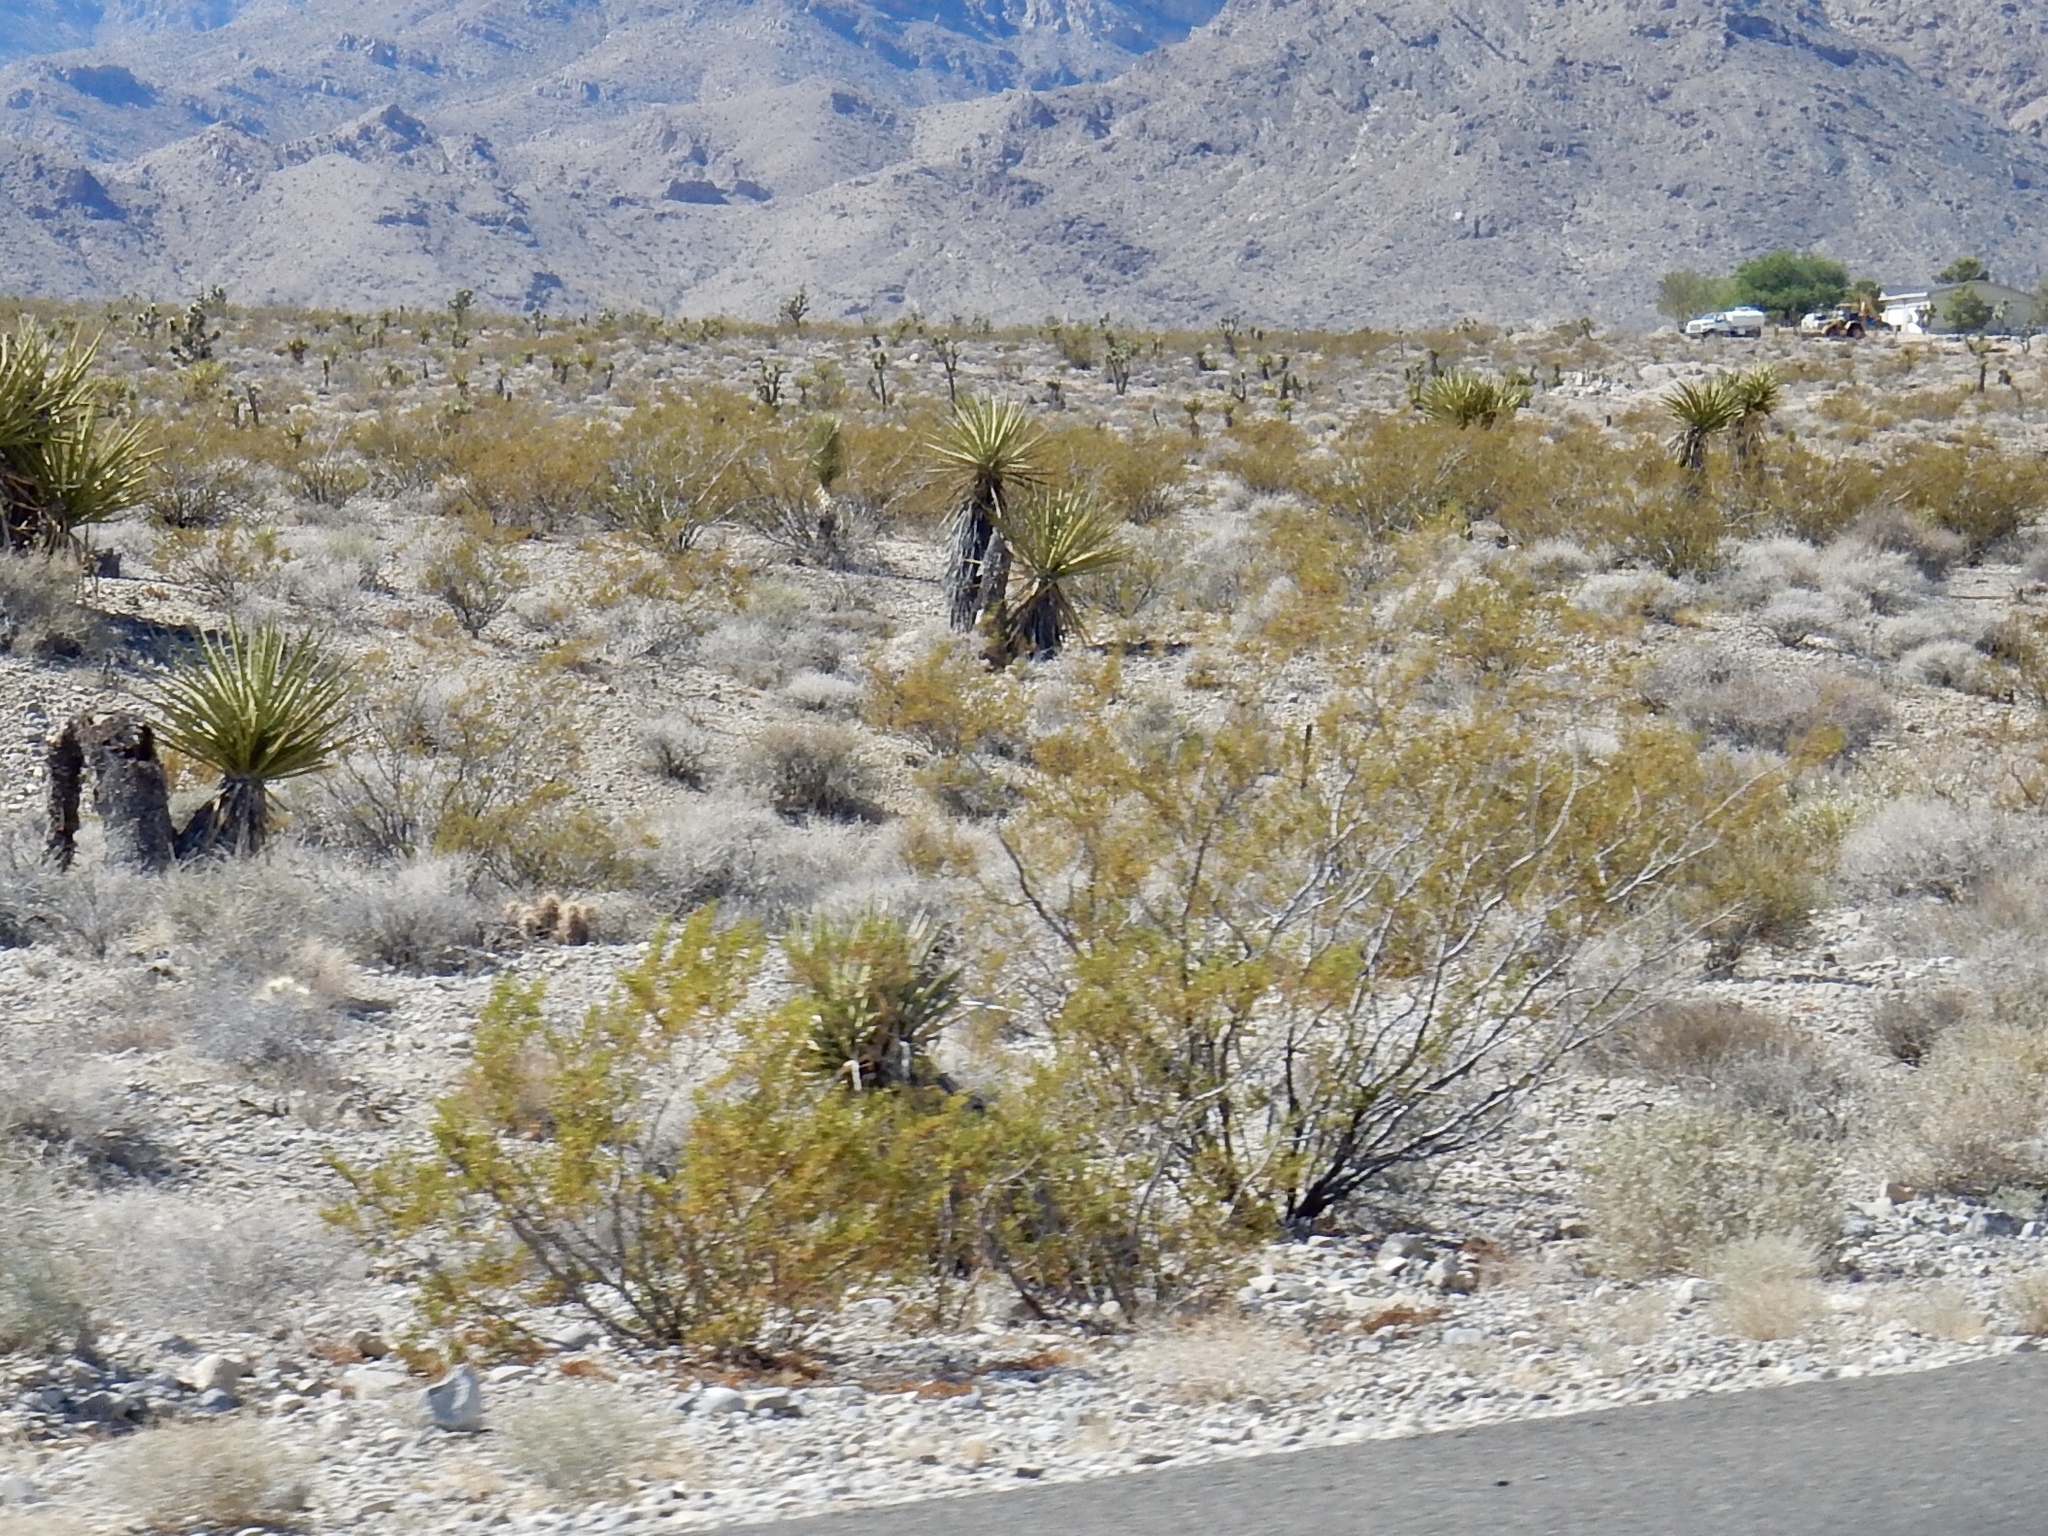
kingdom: Plantae
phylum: Tracheophyta
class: Magnoliopsida
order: Zygophyllales
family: Zygophyllaceae
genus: Larrea
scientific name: Larrea tridentata
